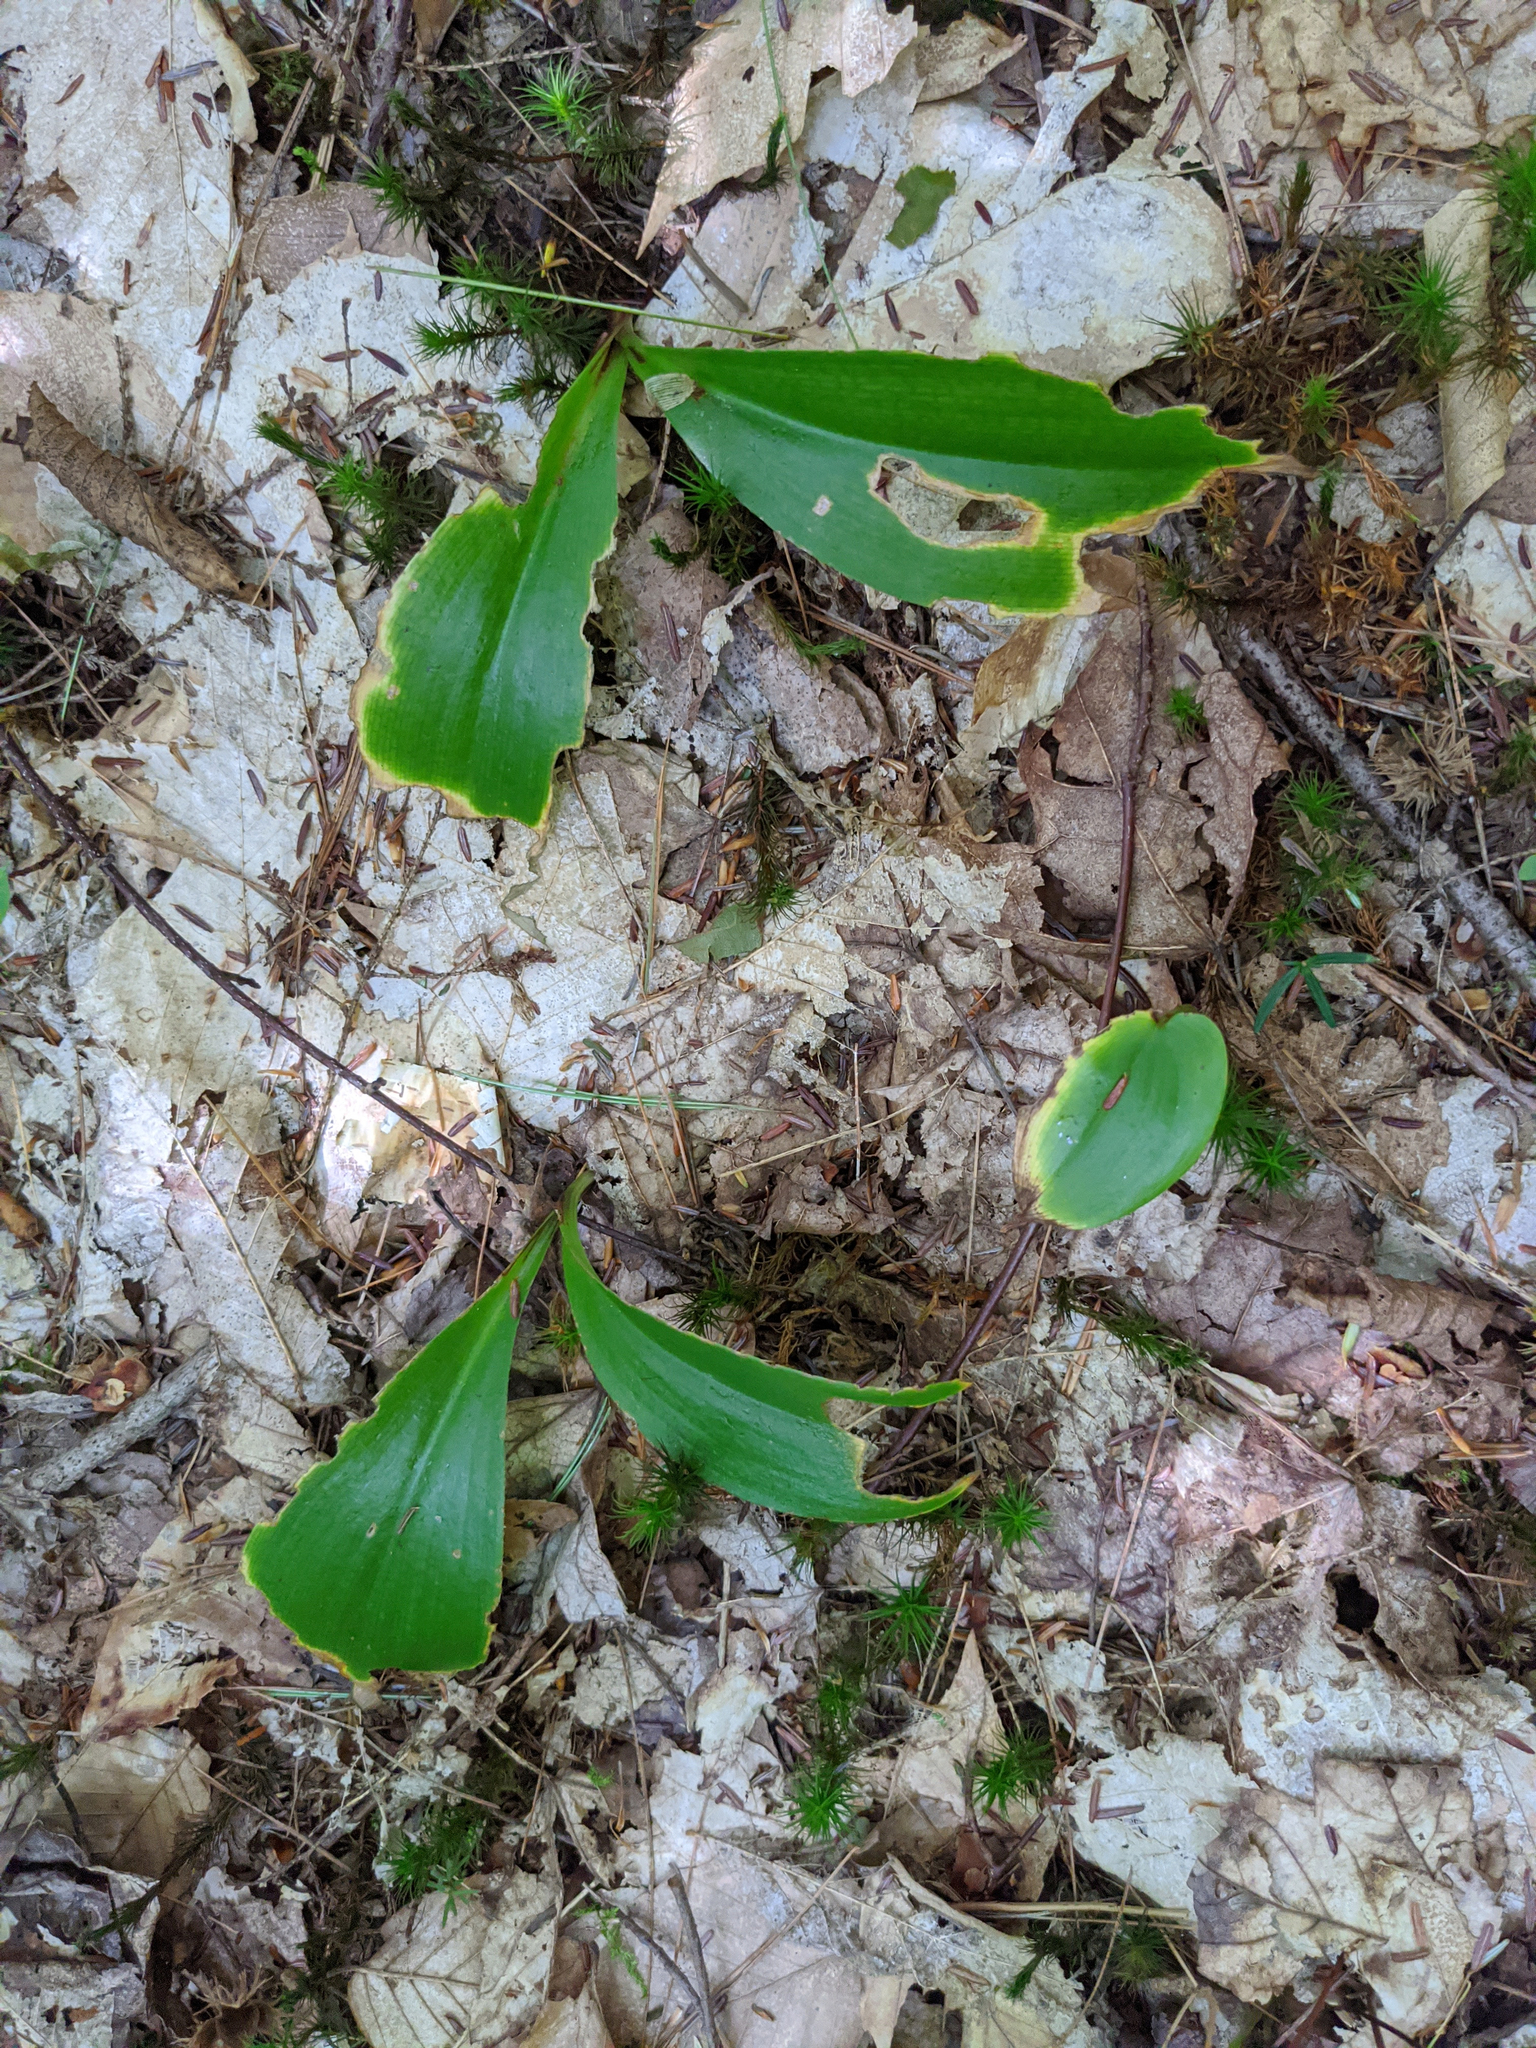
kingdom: Plantae
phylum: Tracheophyta
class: Liliopsida
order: Liliales
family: Liliaceae
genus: Clintonia
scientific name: Clintonia borealis
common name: Yellow clintonia
